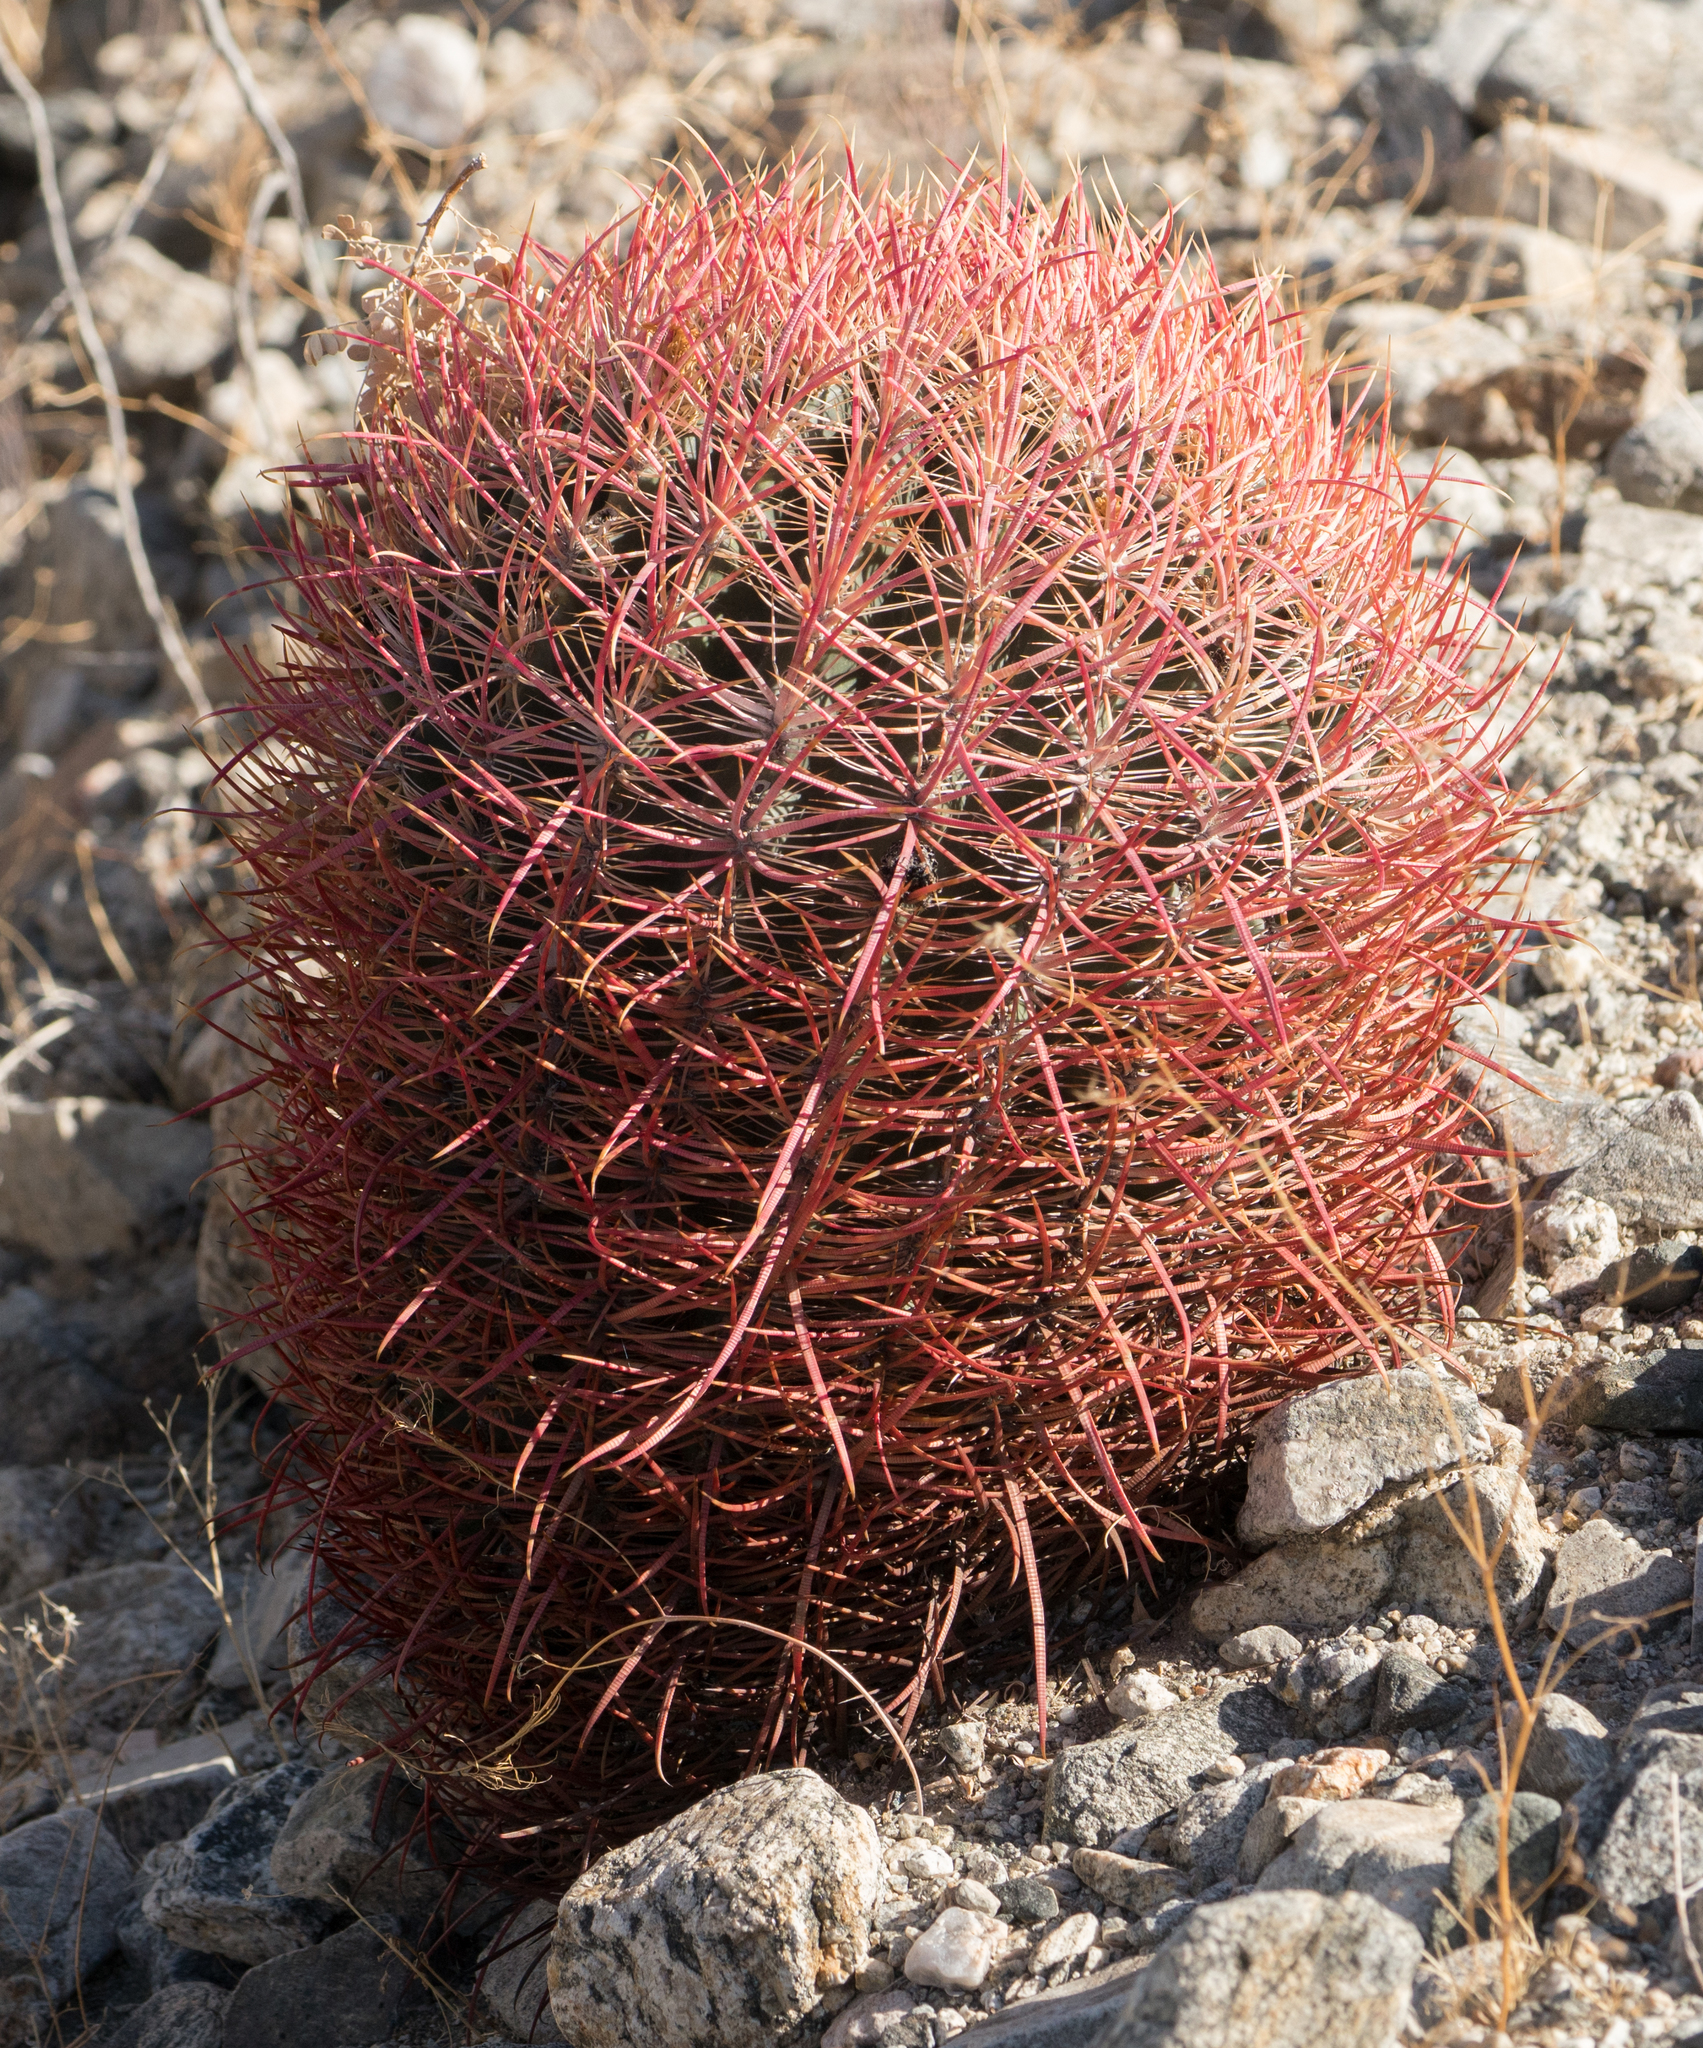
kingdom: Plantae
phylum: Tracheophyta
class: Magnoliopsida
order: Caryophyllales
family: Cactaceae
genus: Ferocactus
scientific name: Ferocactus cylindraceus
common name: California barrel cactus
